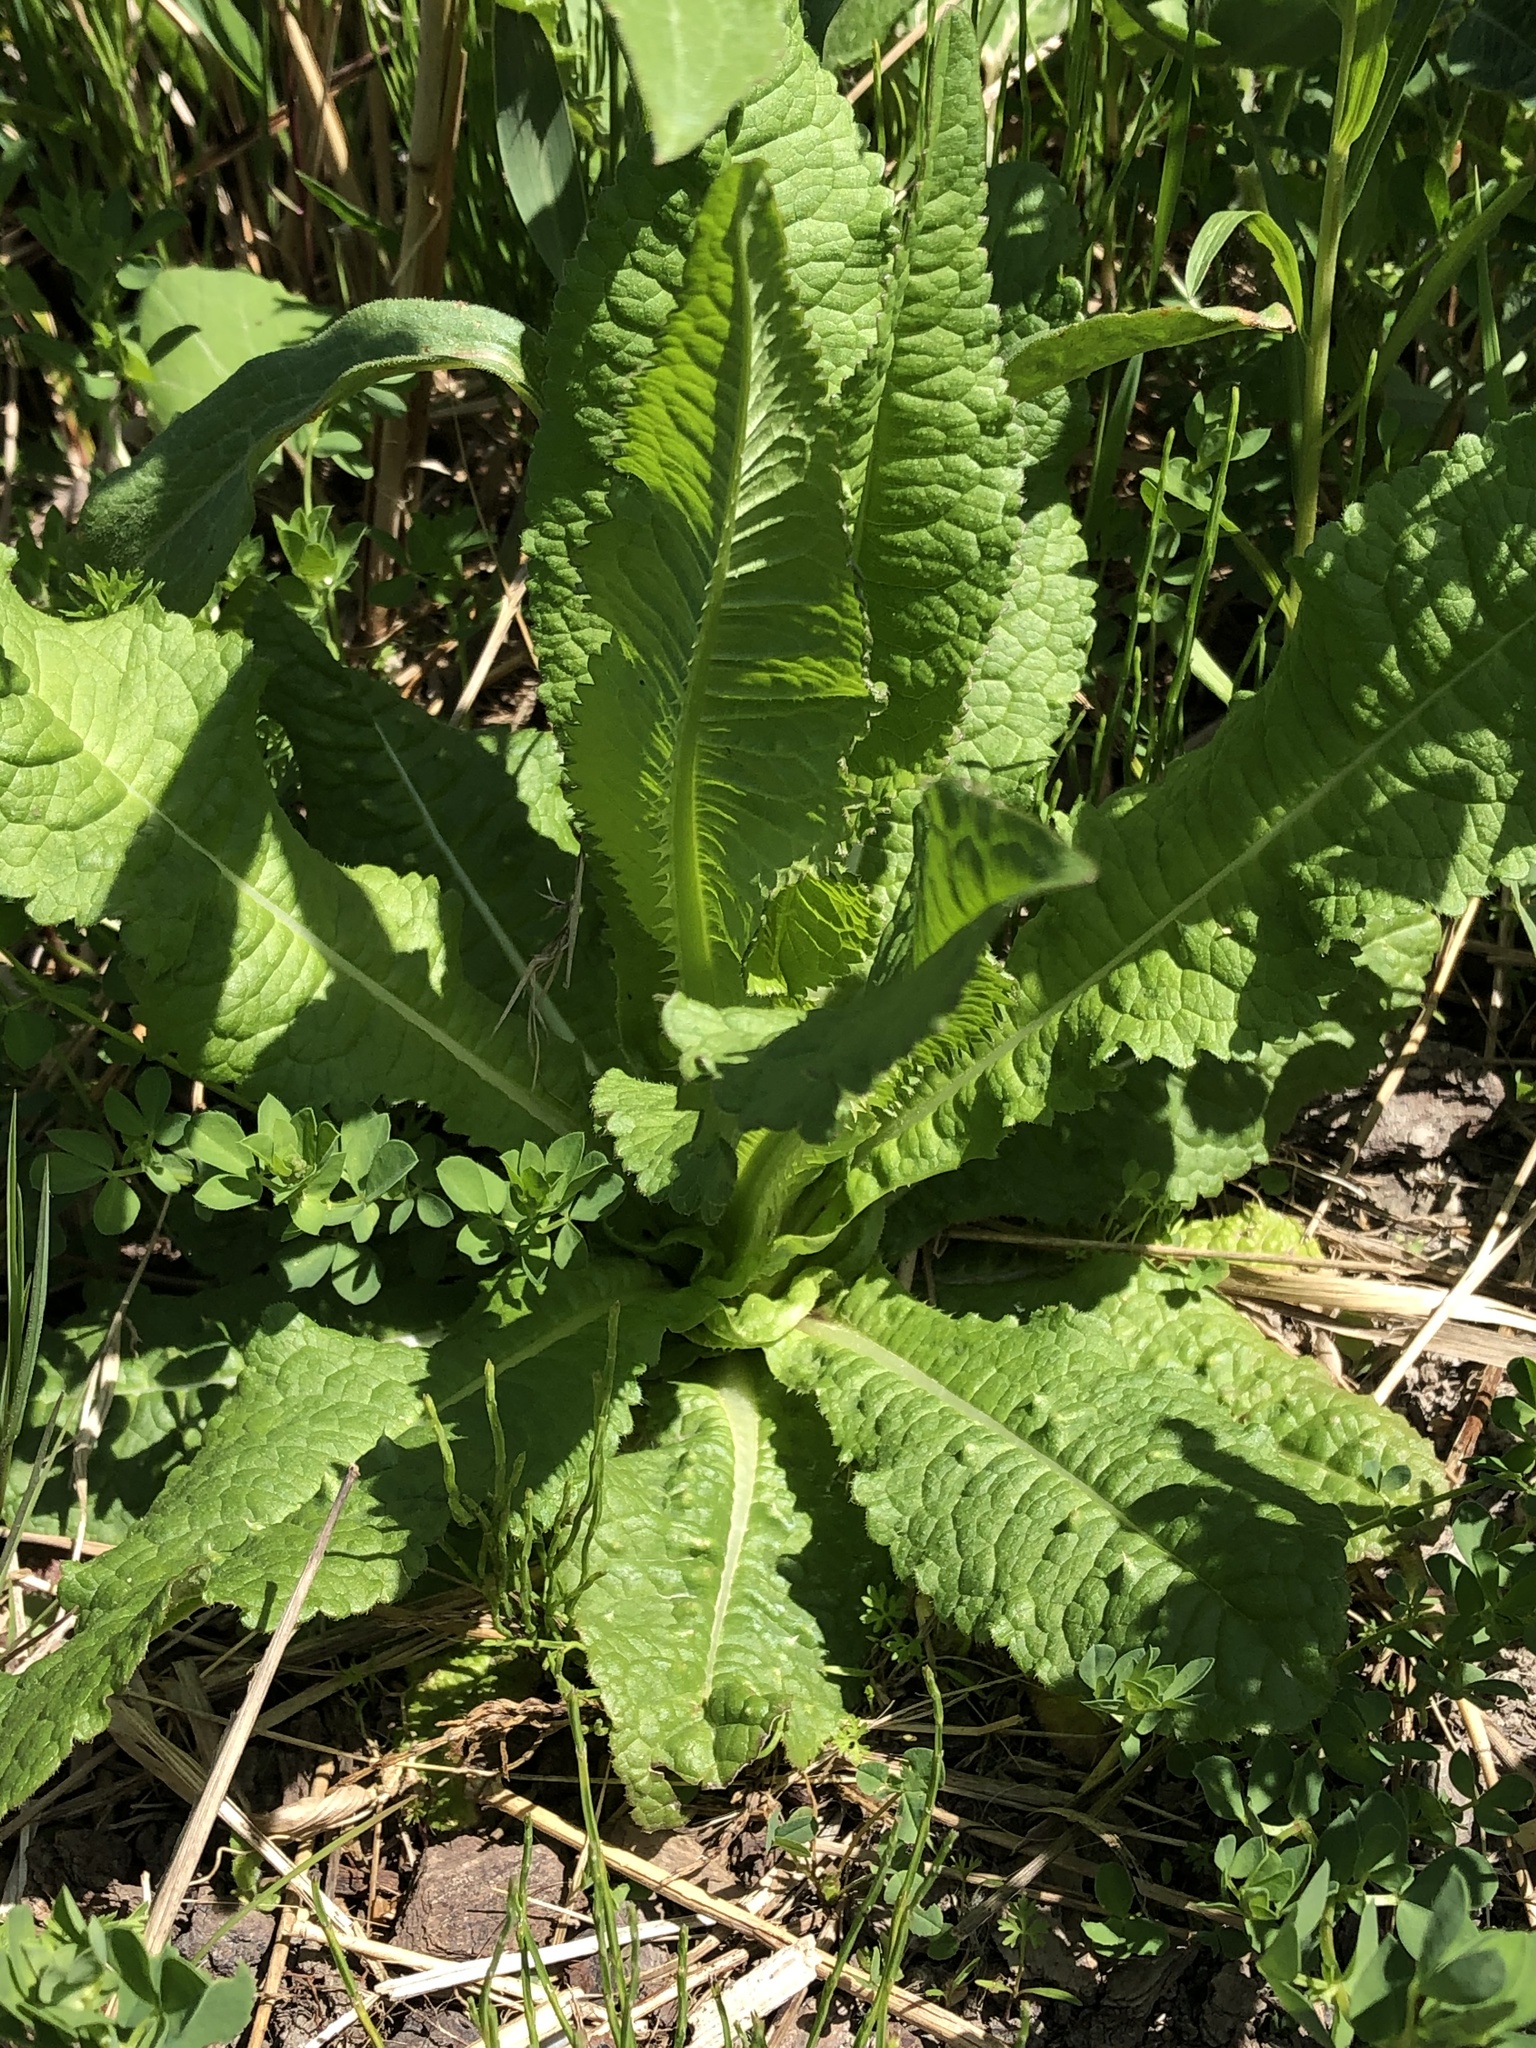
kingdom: Plantae
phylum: Tracheophyta
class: Magnoliopsida
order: Dipsacales
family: Caprifoliaceae
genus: Dipsacus
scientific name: Dipsacus fullonum
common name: Teasel
